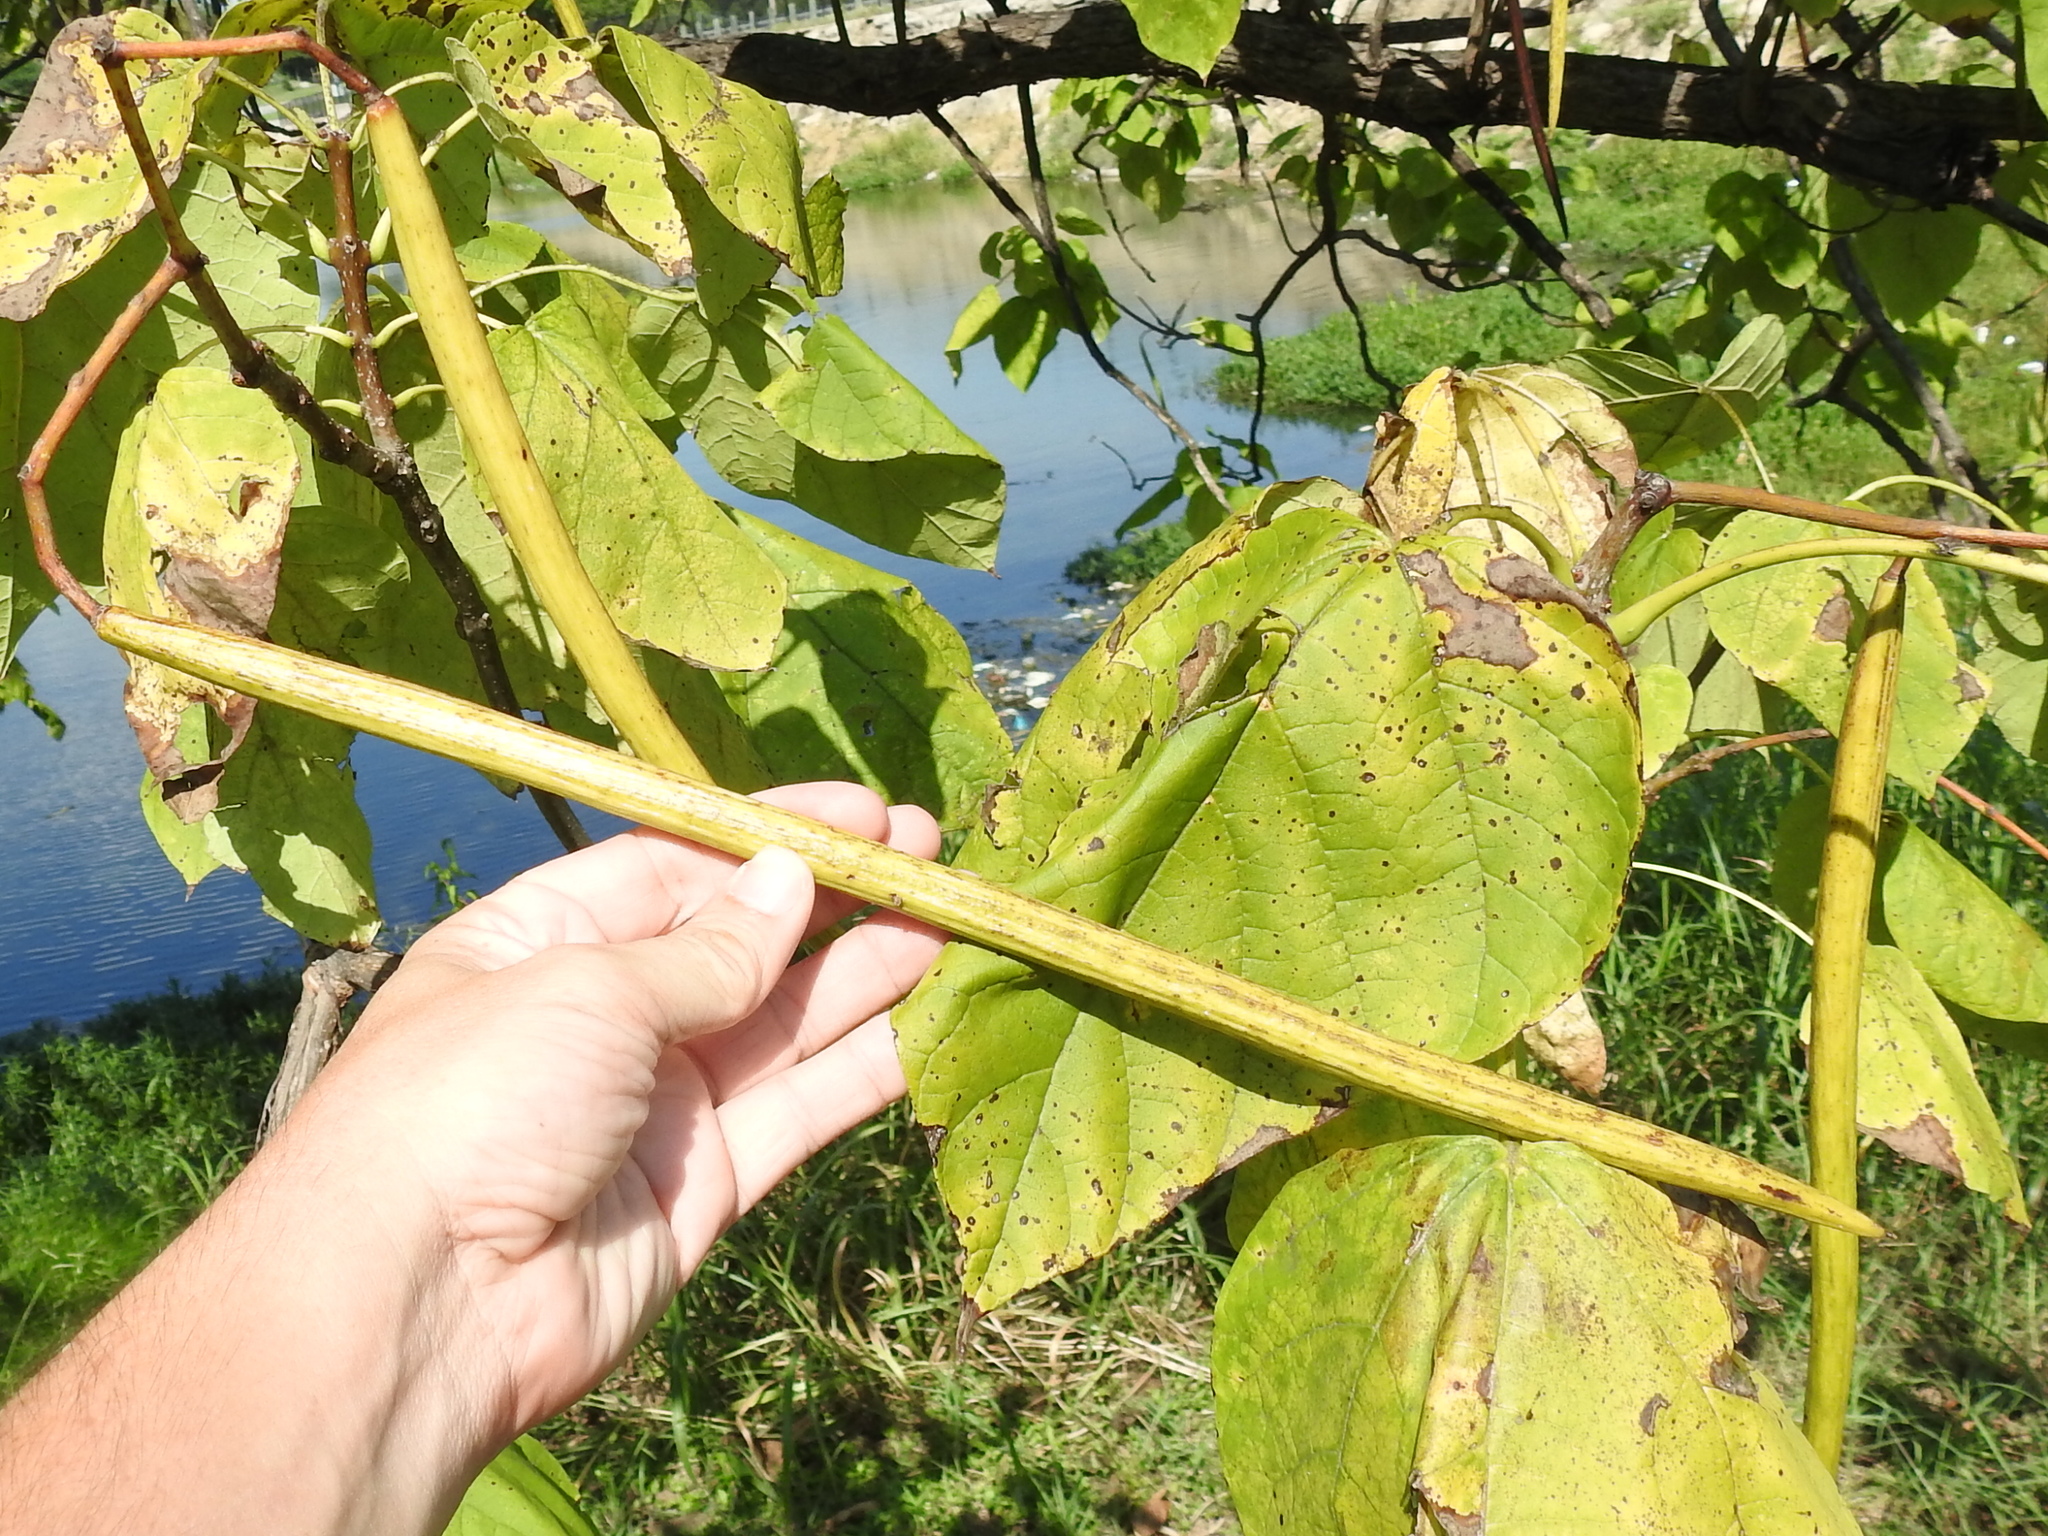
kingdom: Plantae
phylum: Tracheophyta
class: Magnoliopsida
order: Lamiales
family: Bignoniaceae
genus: Catalpa
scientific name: Catalpa speciosa
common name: Northern catalpa
